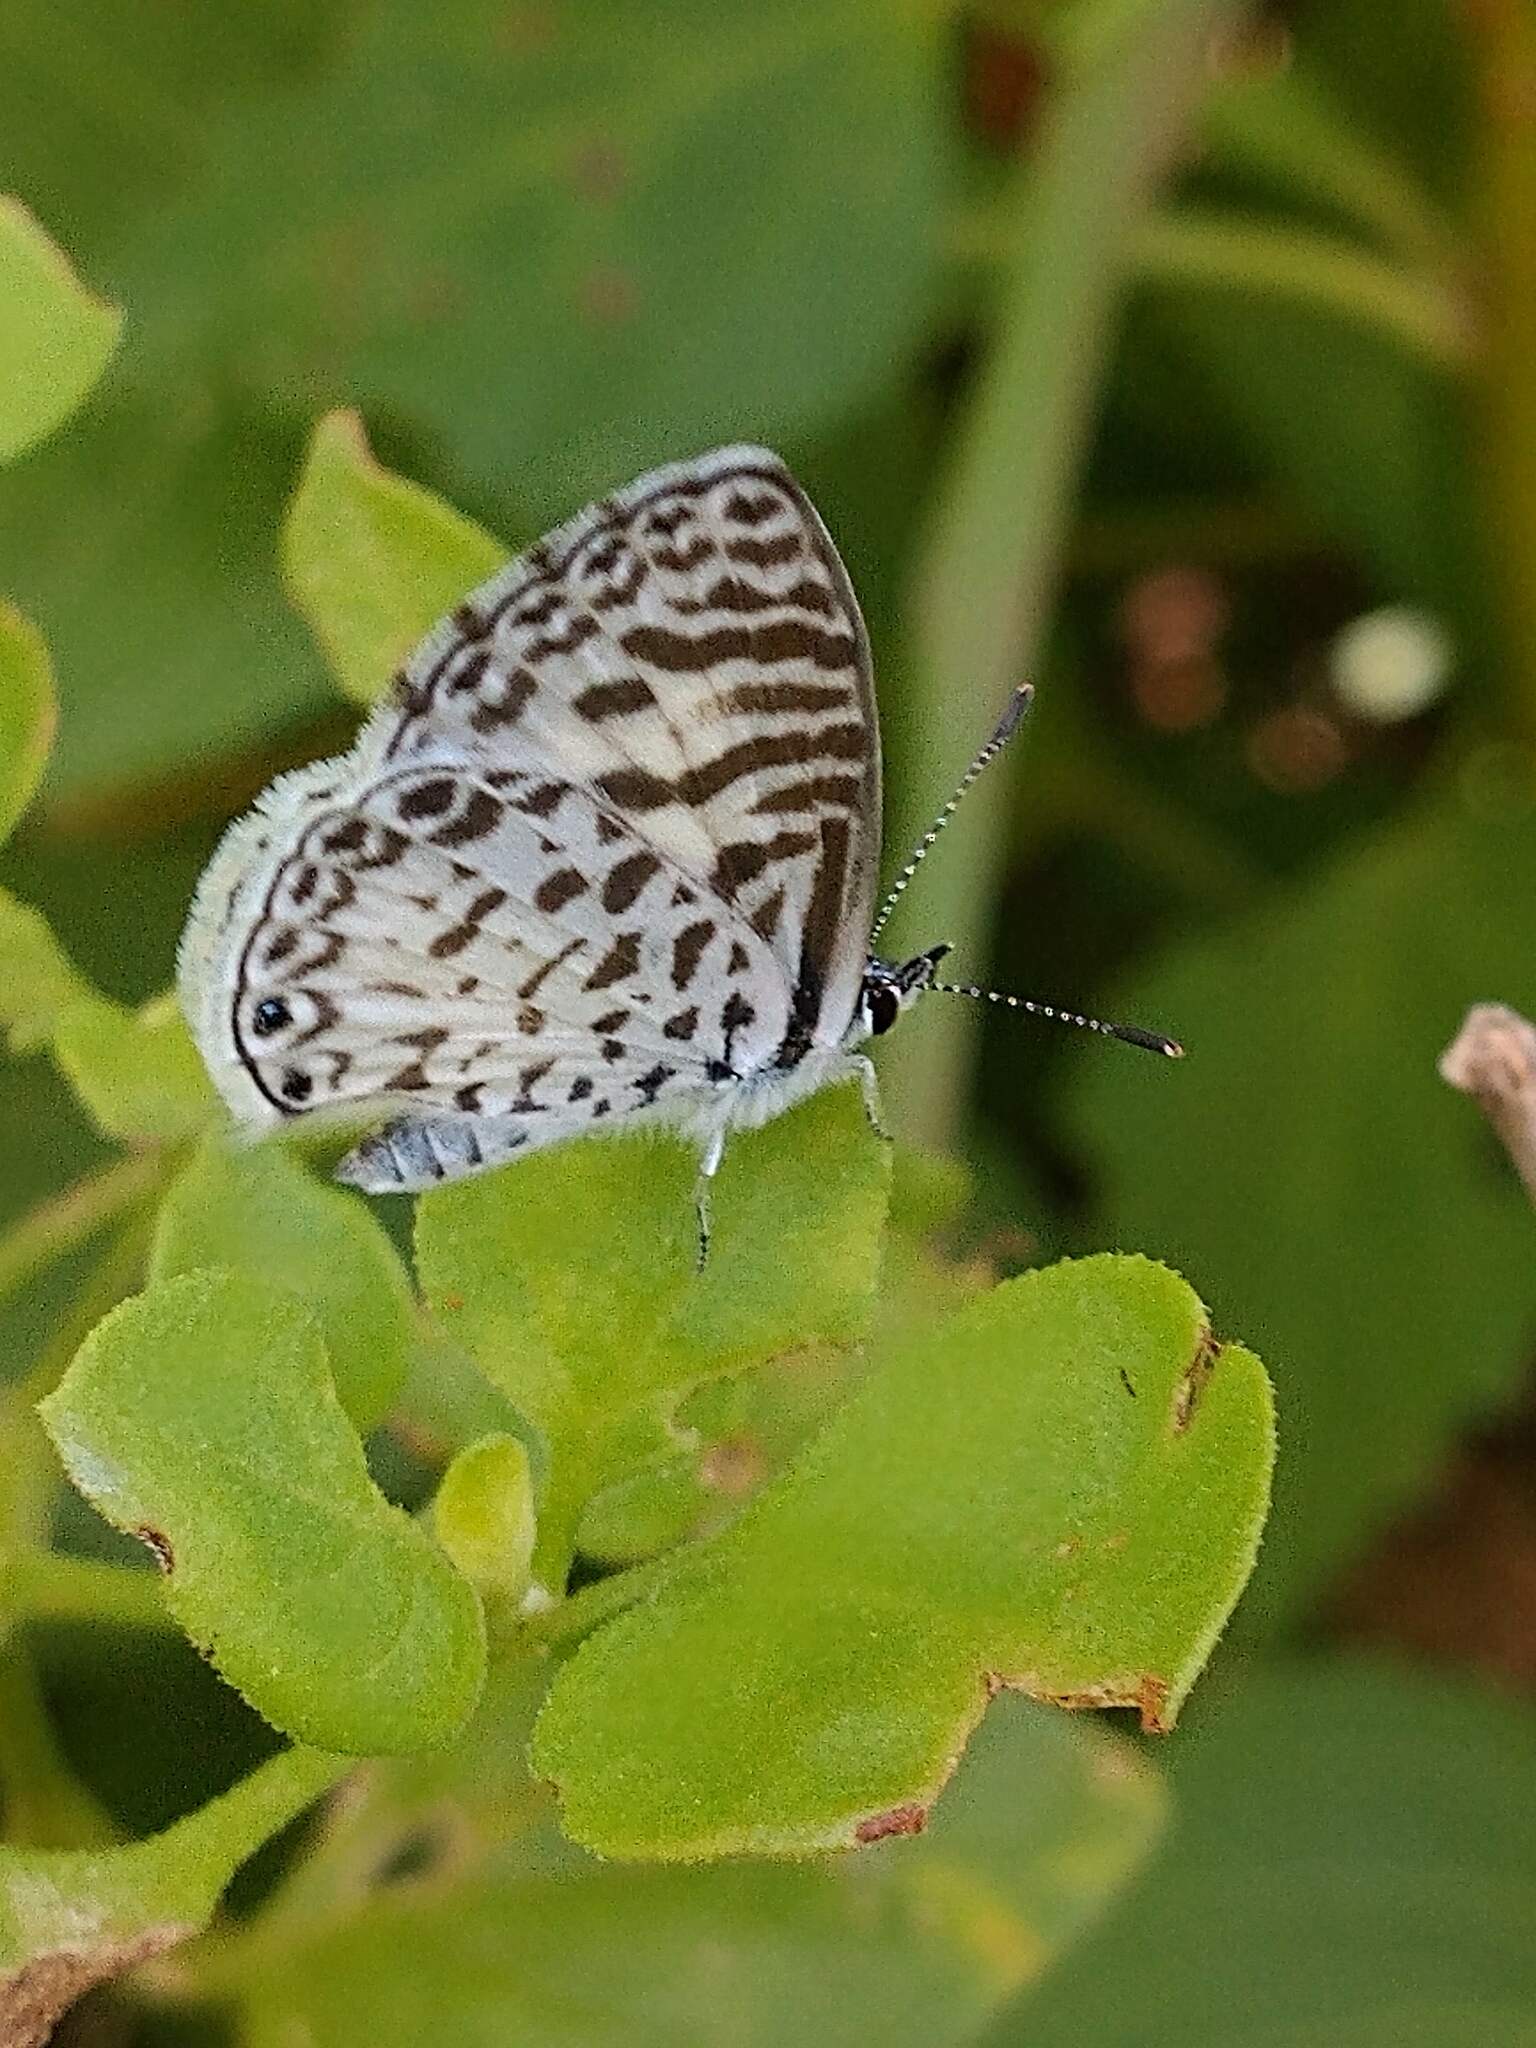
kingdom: Animalia
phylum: Arthropoda
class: Insecta
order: Lepidoptera
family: Lycaenidae
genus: Leptotes
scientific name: Leptotes cassius
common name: Cassius blue
